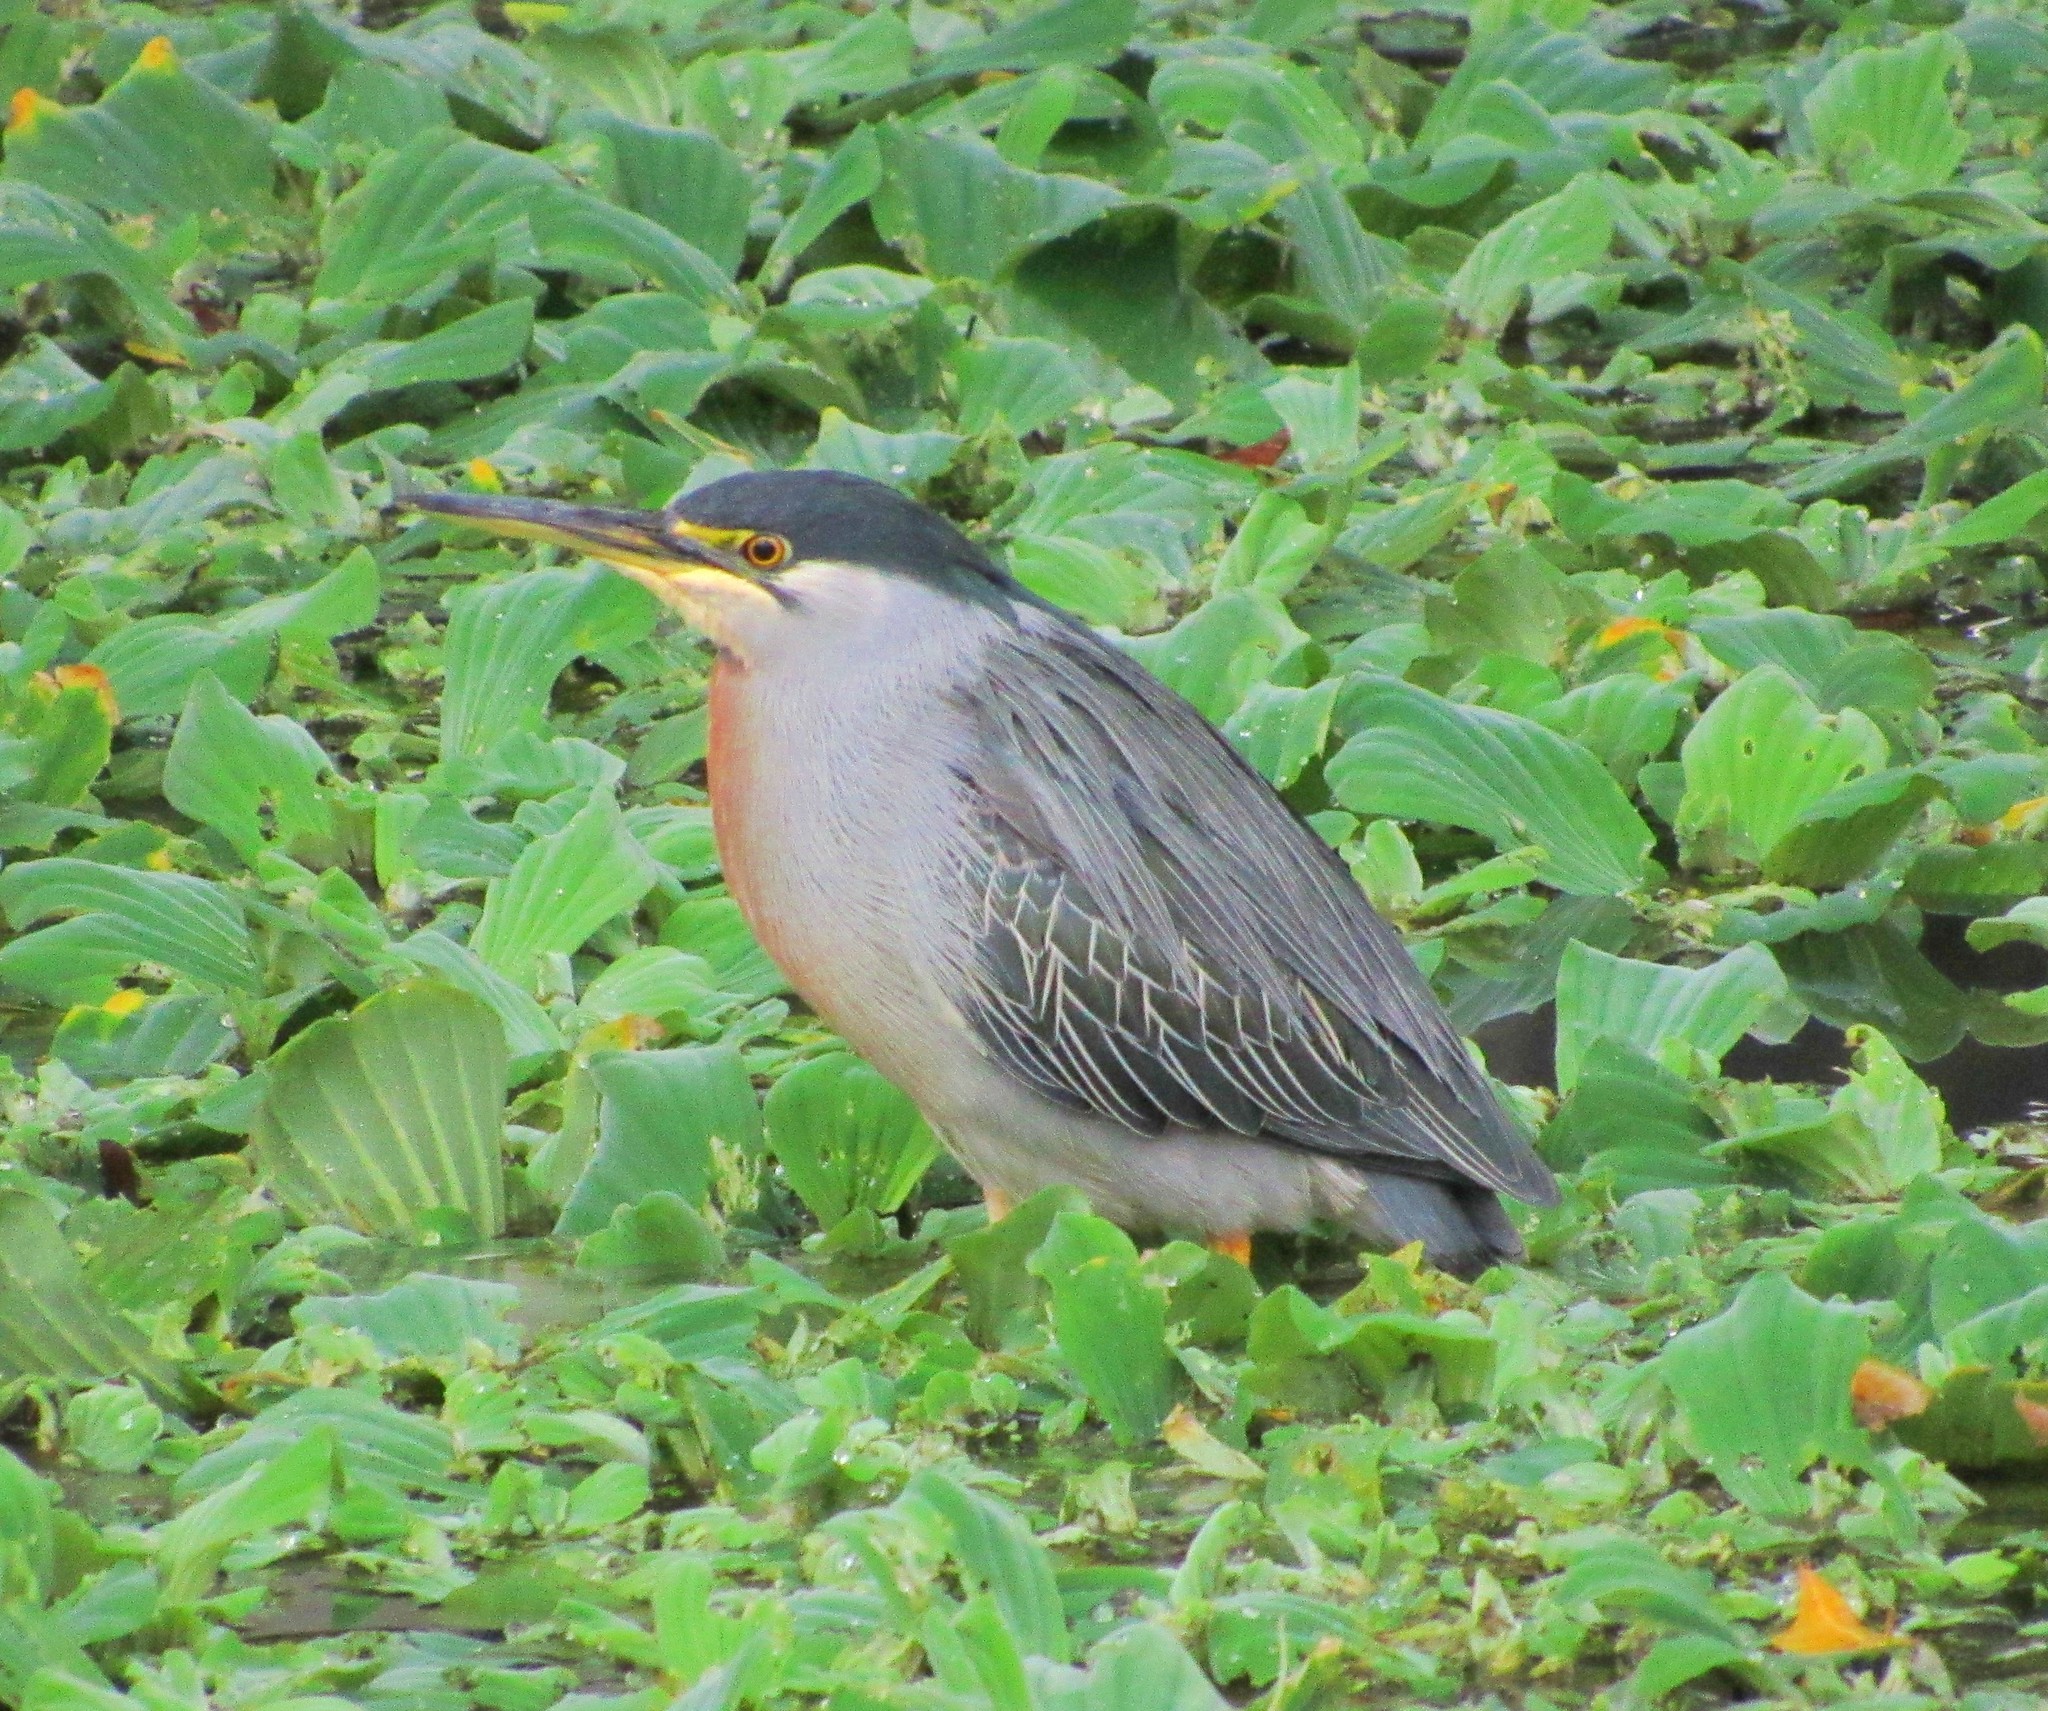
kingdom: Animalia
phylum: Chordata
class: Aves
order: Pelecaniformes
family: Ardeidae
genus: Butorides
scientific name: Butorides striata
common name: Striated heron
